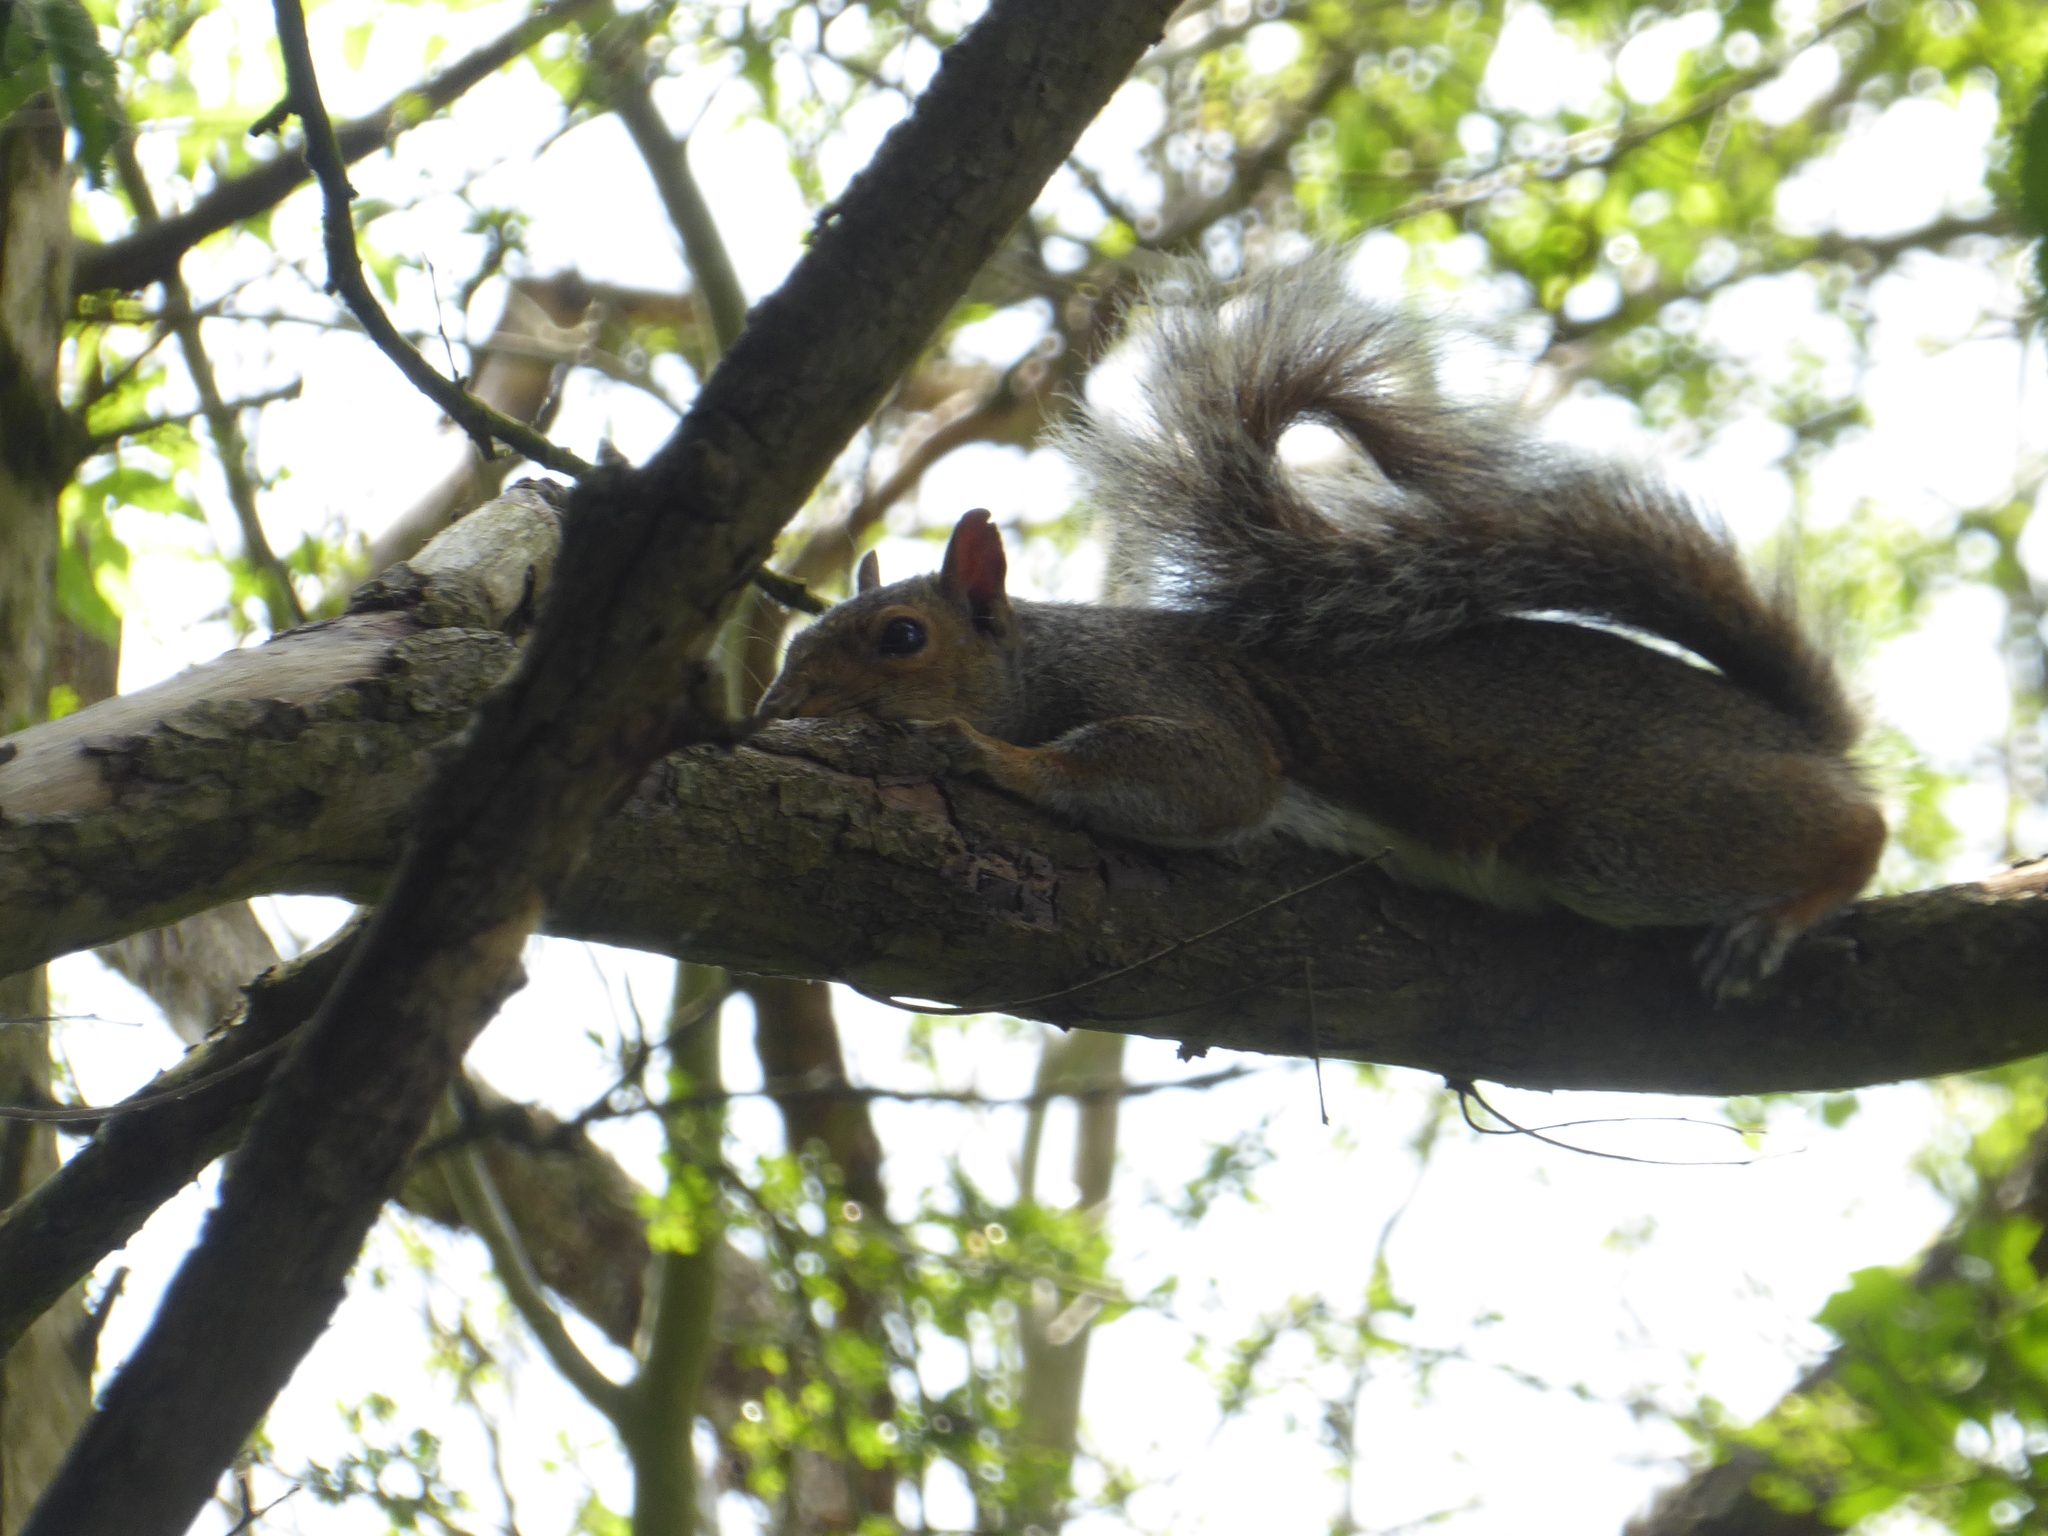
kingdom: Animalia
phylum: Chordata
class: Mammalia
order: Rodentia
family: Sciuridae
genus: Sciurus
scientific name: Sciurus carolinensis
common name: Eastern gray squirrel
